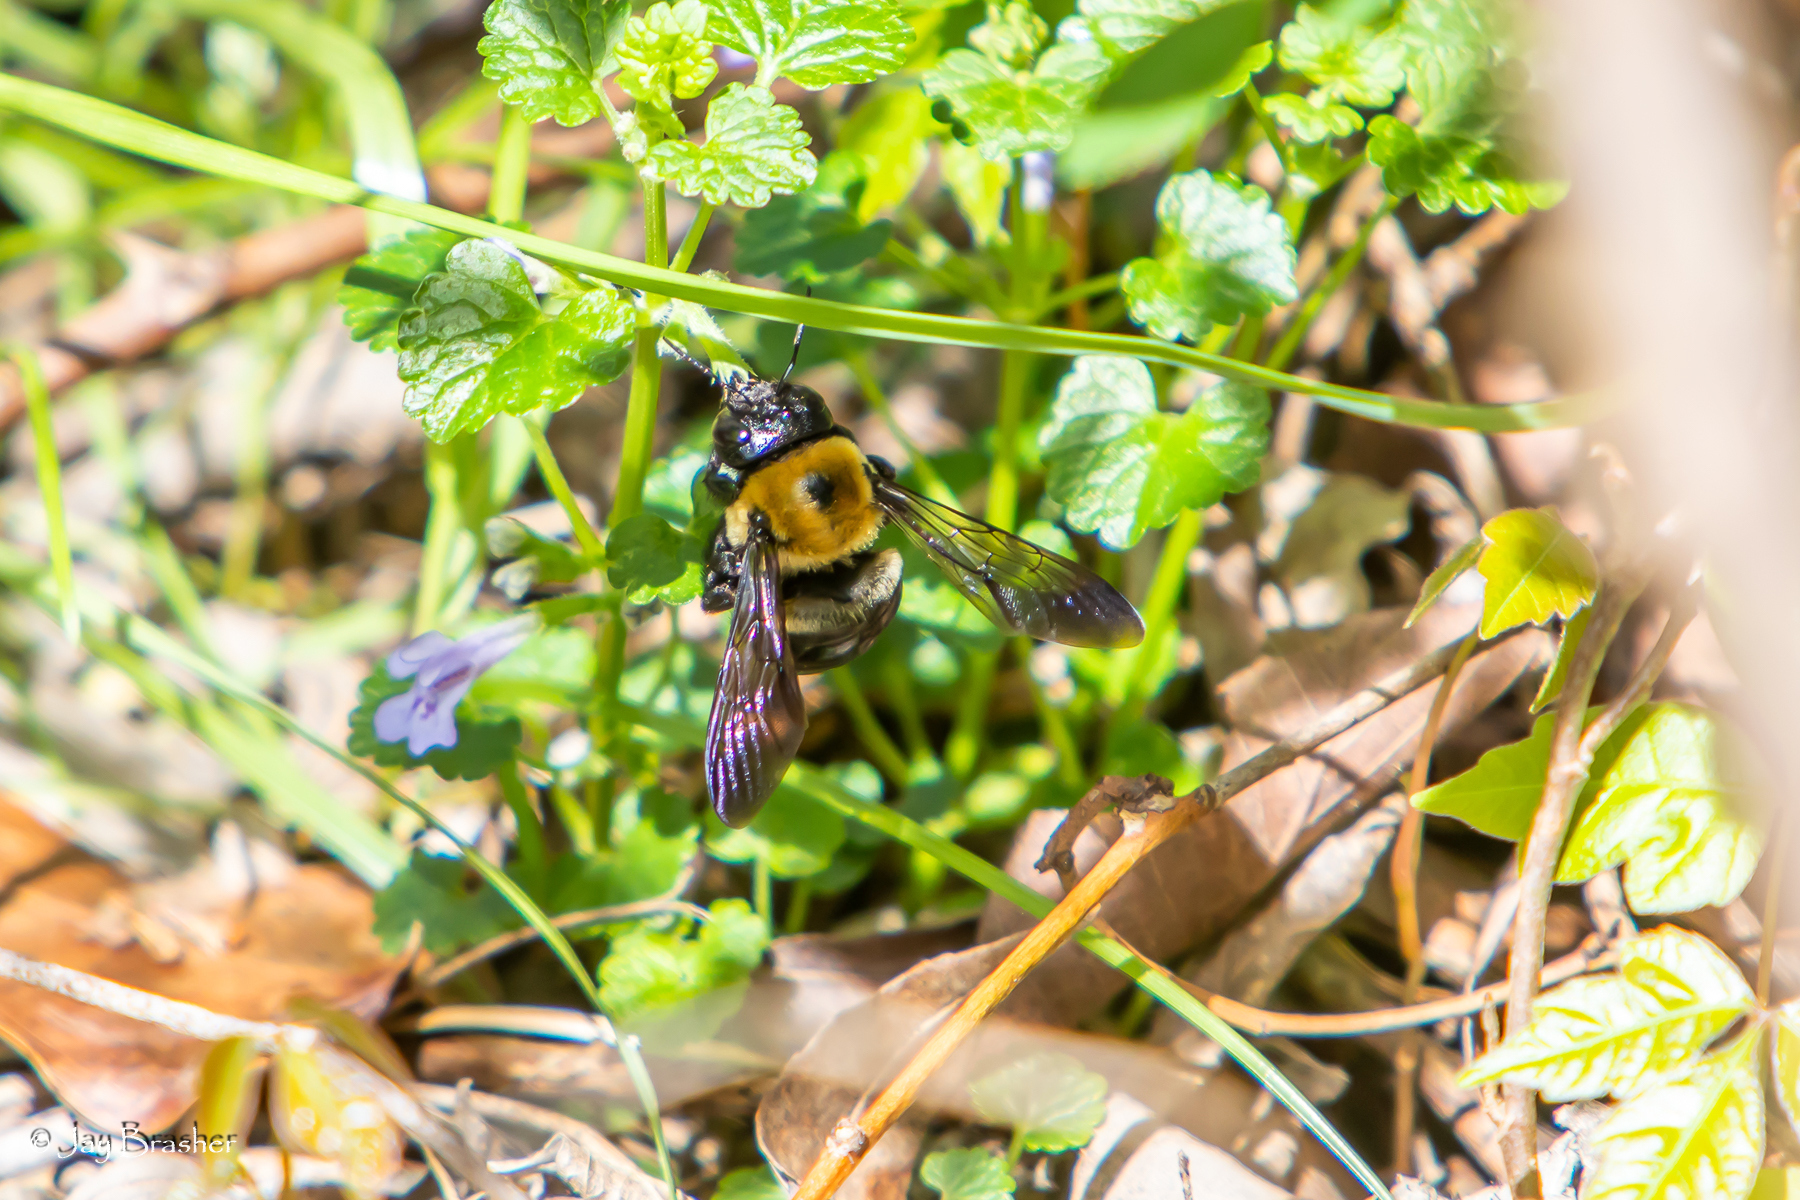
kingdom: Animalia
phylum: Arthropoda
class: Insecta
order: Hymenoptera
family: Apidae
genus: Xylocopa
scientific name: Xylocopa virginica
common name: Carpenter bee
